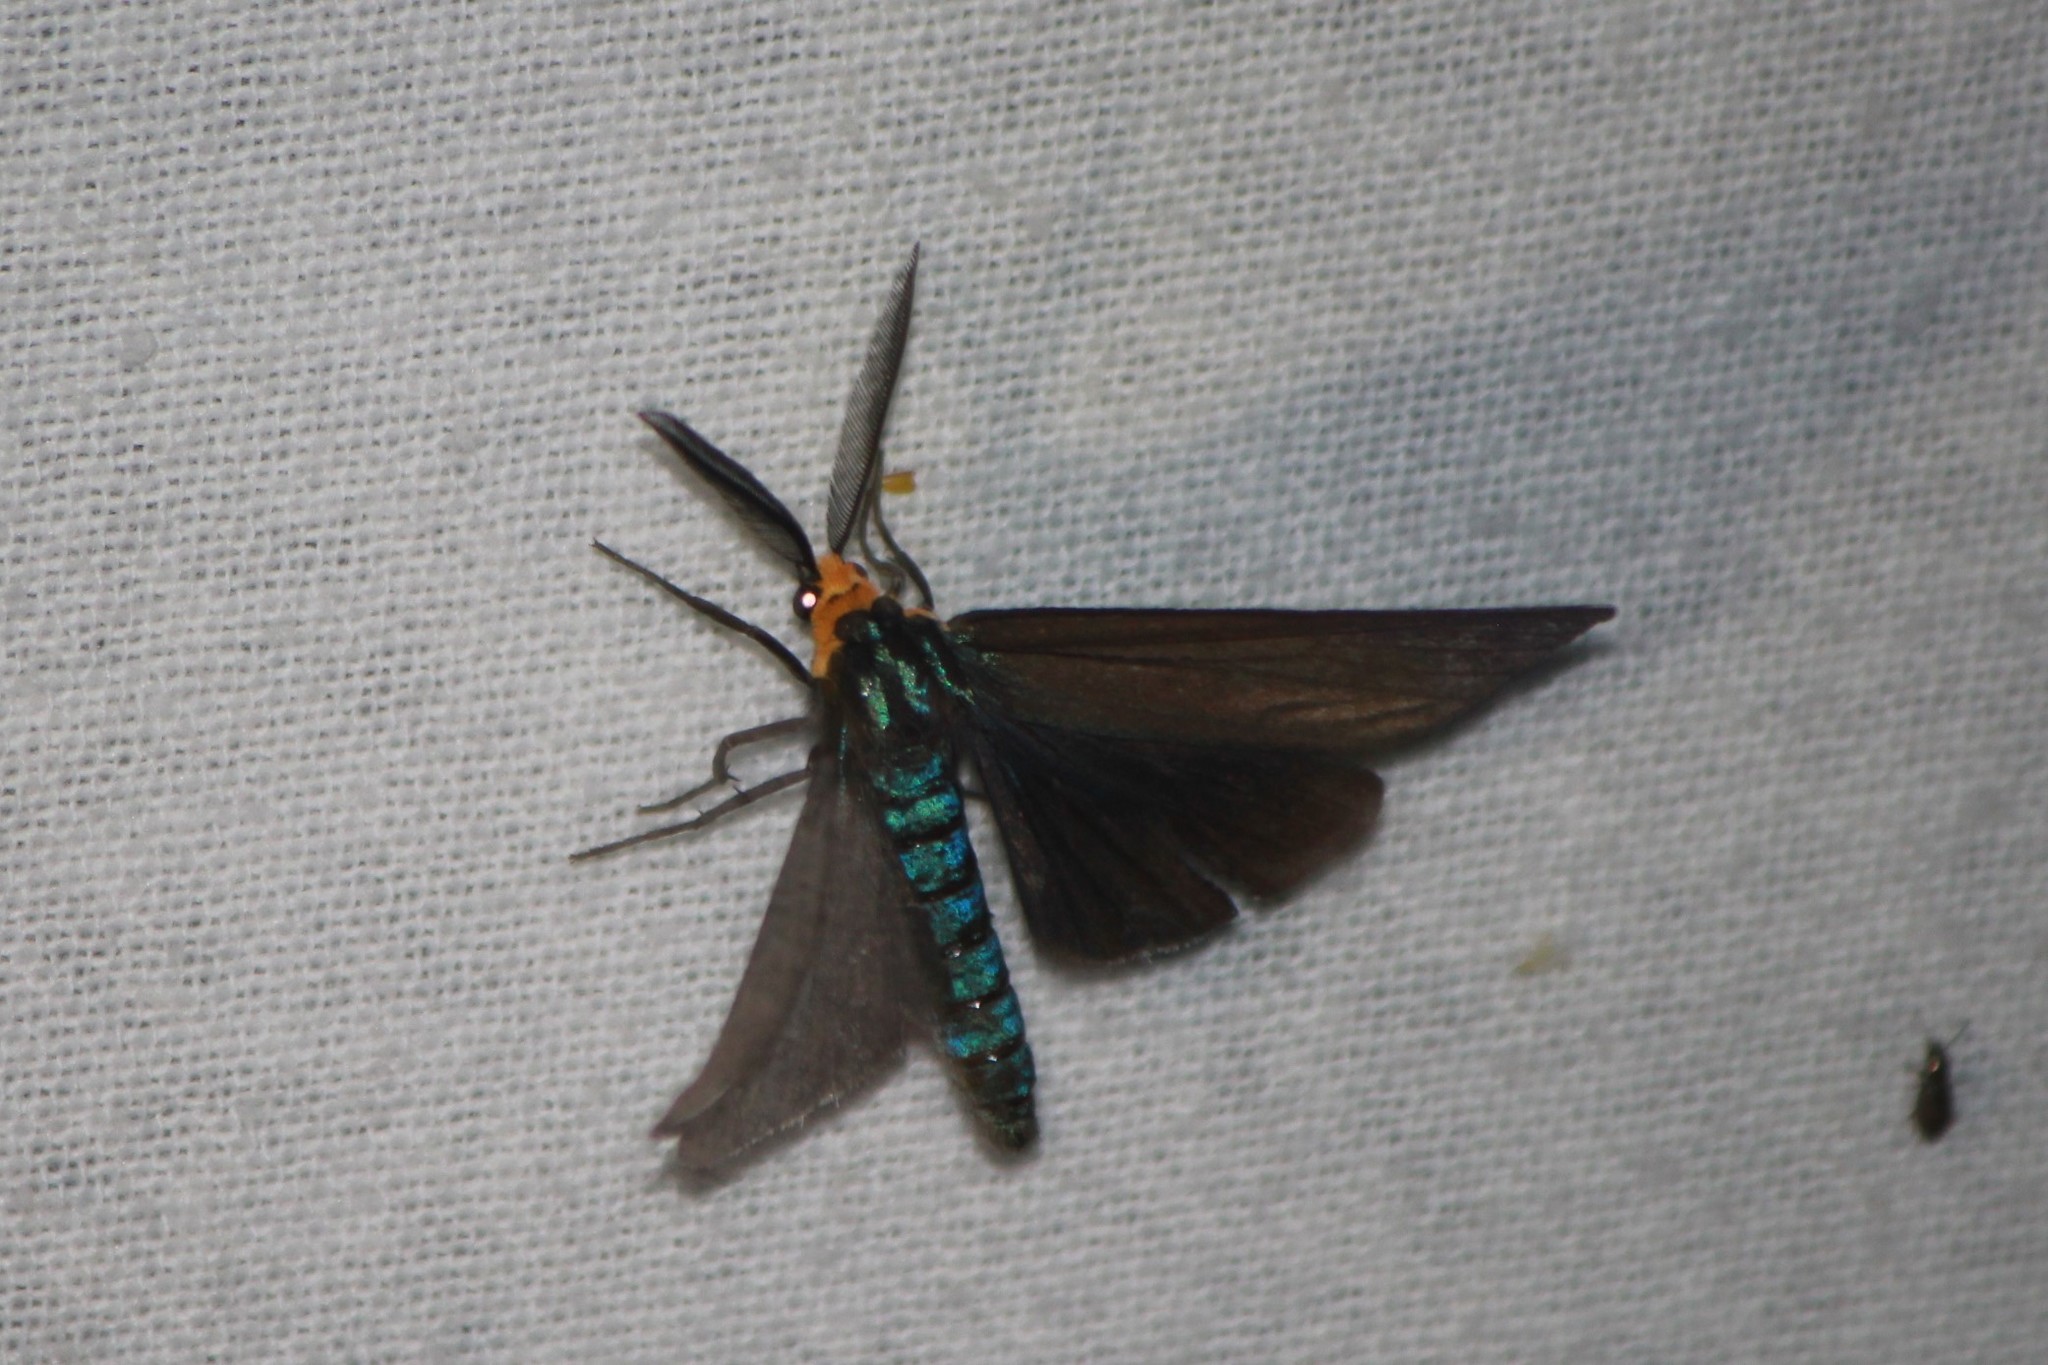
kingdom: Animalia
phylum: Arthropoda
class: Insecta
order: Lepidoptera
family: Erebidae
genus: Ctenucha
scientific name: Ctenucha virginica
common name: Virginia ctenucha moth
